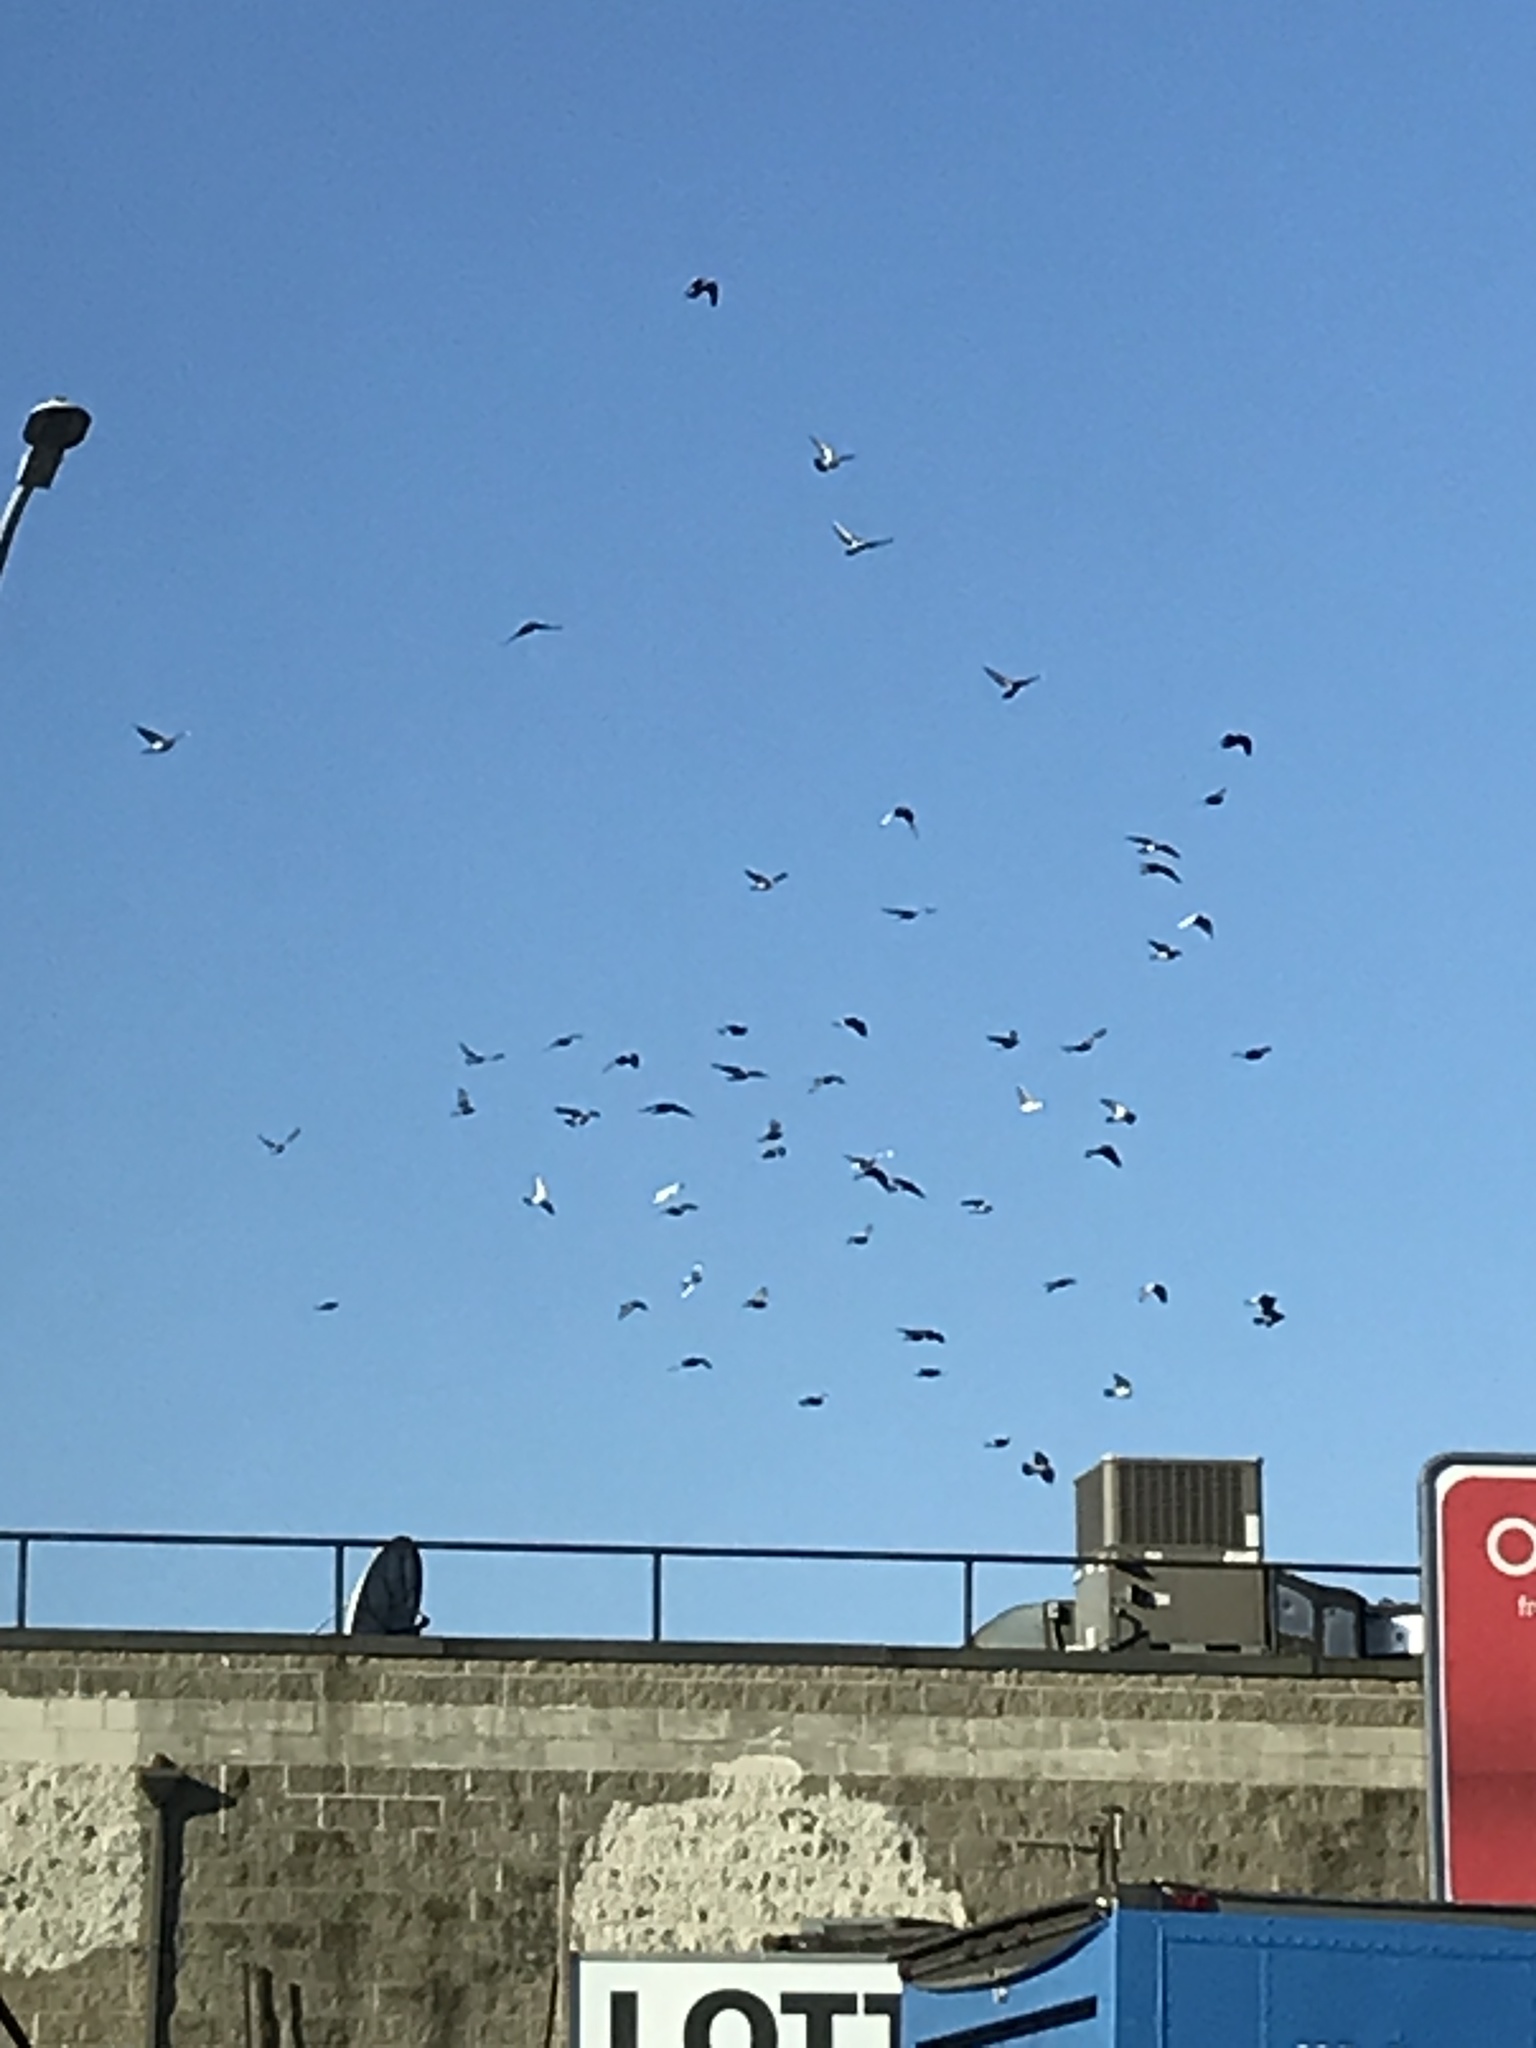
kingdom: Animalia
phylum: Chordata
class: Aves
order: Columbiformes
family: Columbidae
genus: Columba
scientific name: Columba livia
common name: Rock pigeon
